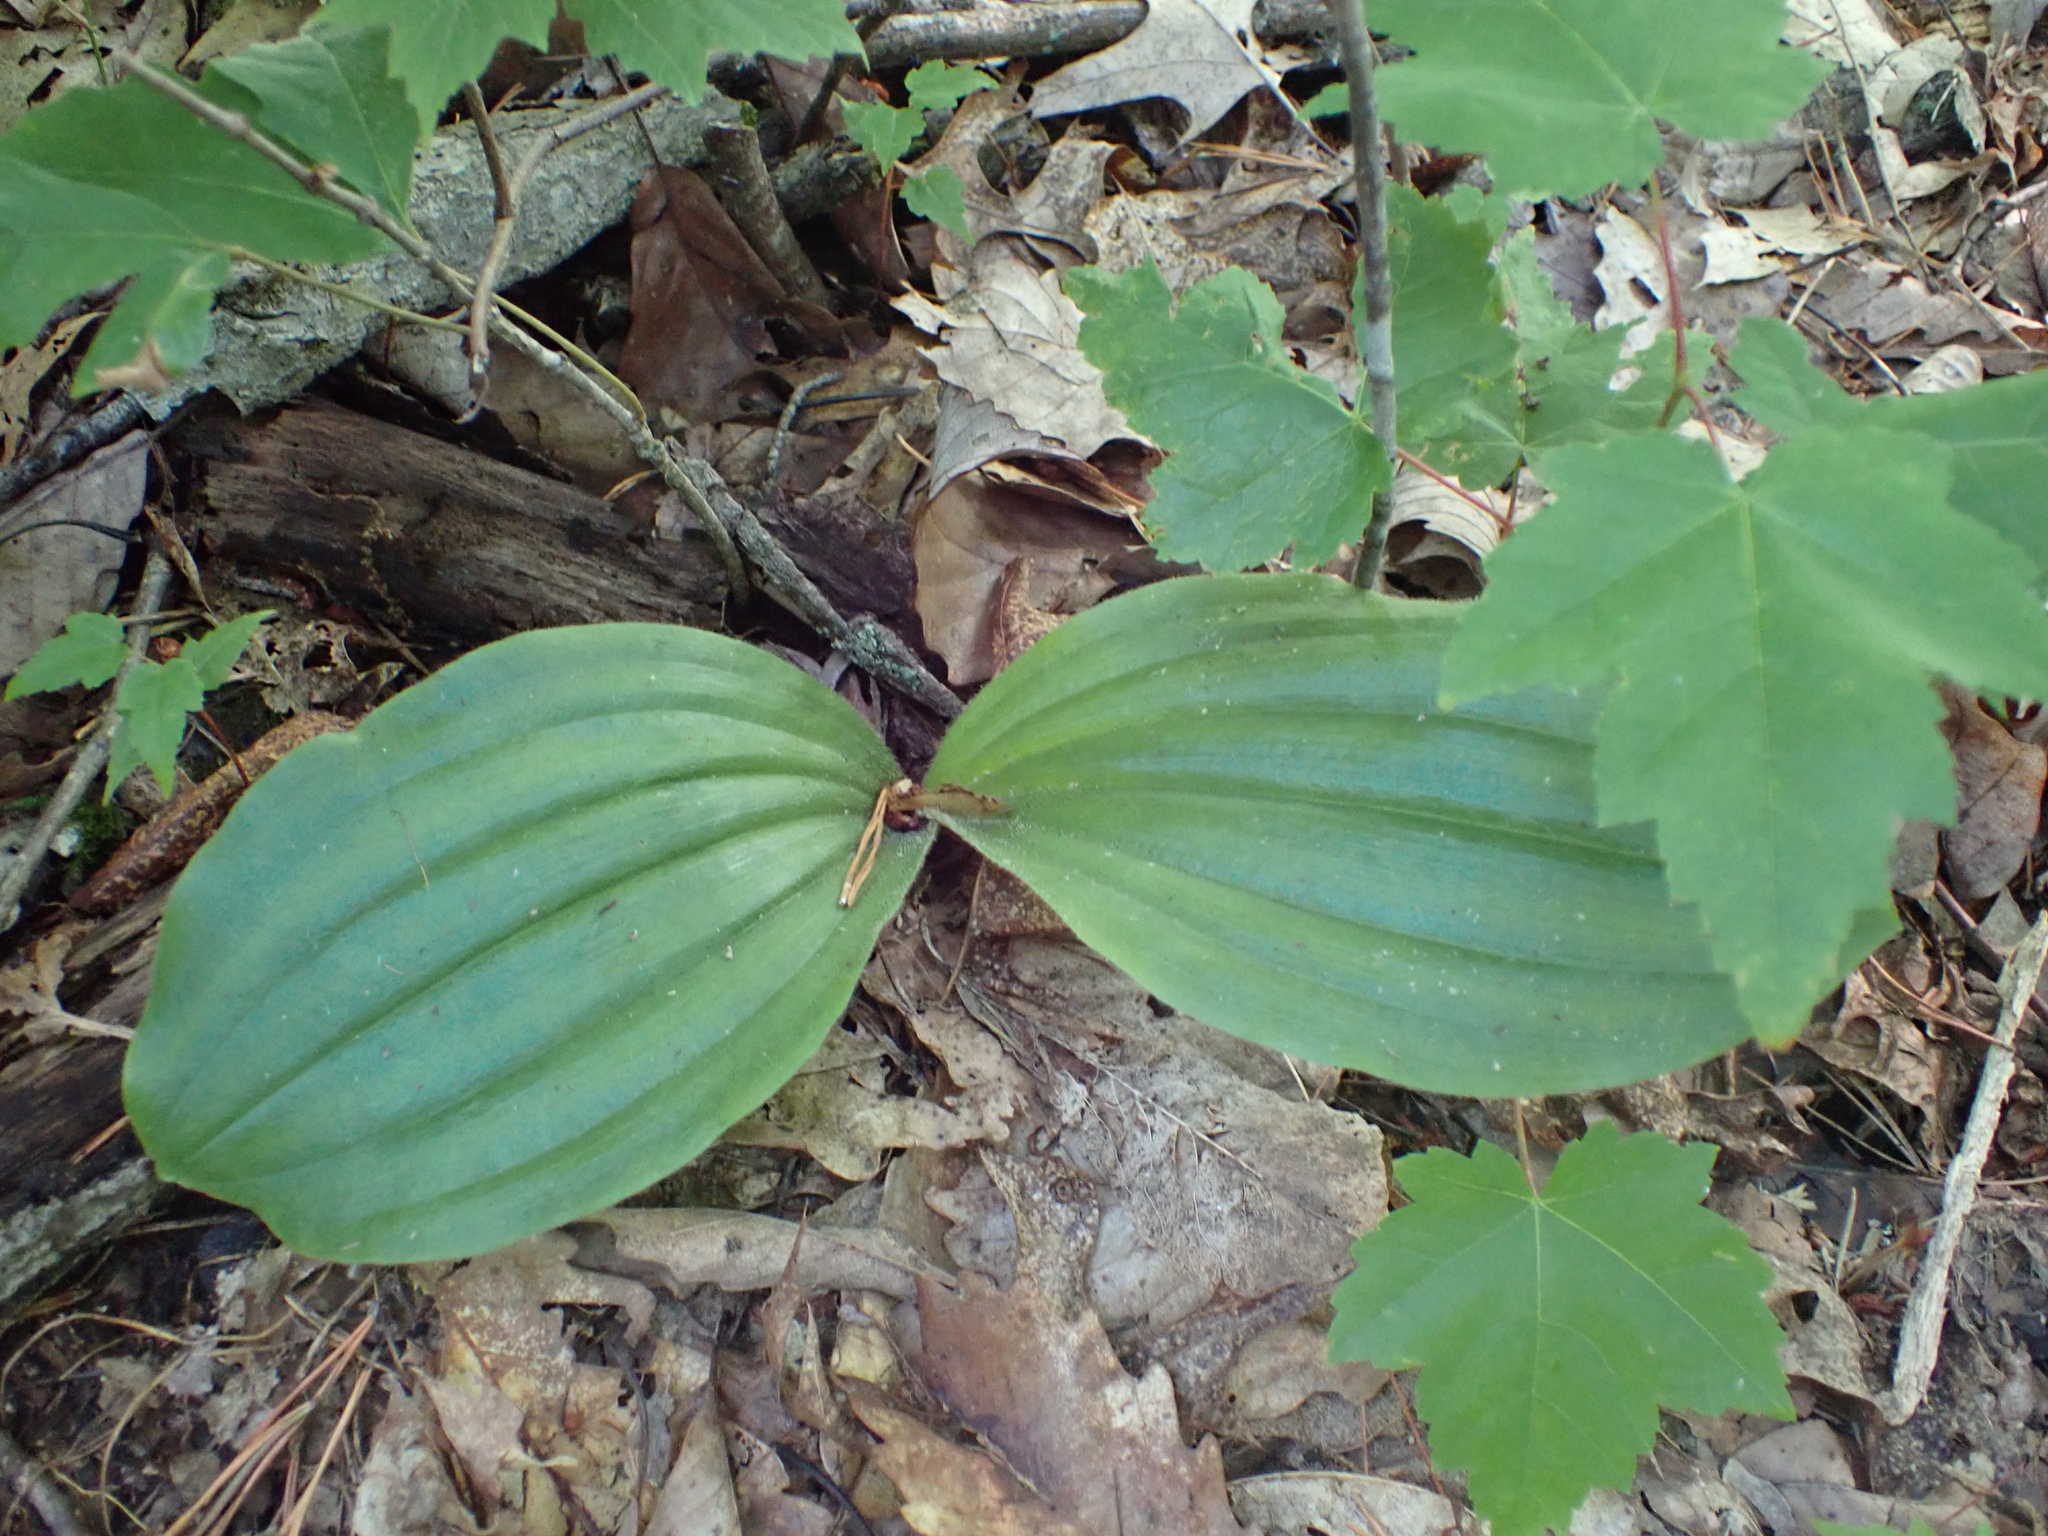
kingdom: Plantae
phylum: Tracheophyta
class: Liliopsida
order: Asparagales
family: Orchidaceae
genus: Cypripedium
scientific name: Cypripedium acaule
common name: Pink lady's-slipper
